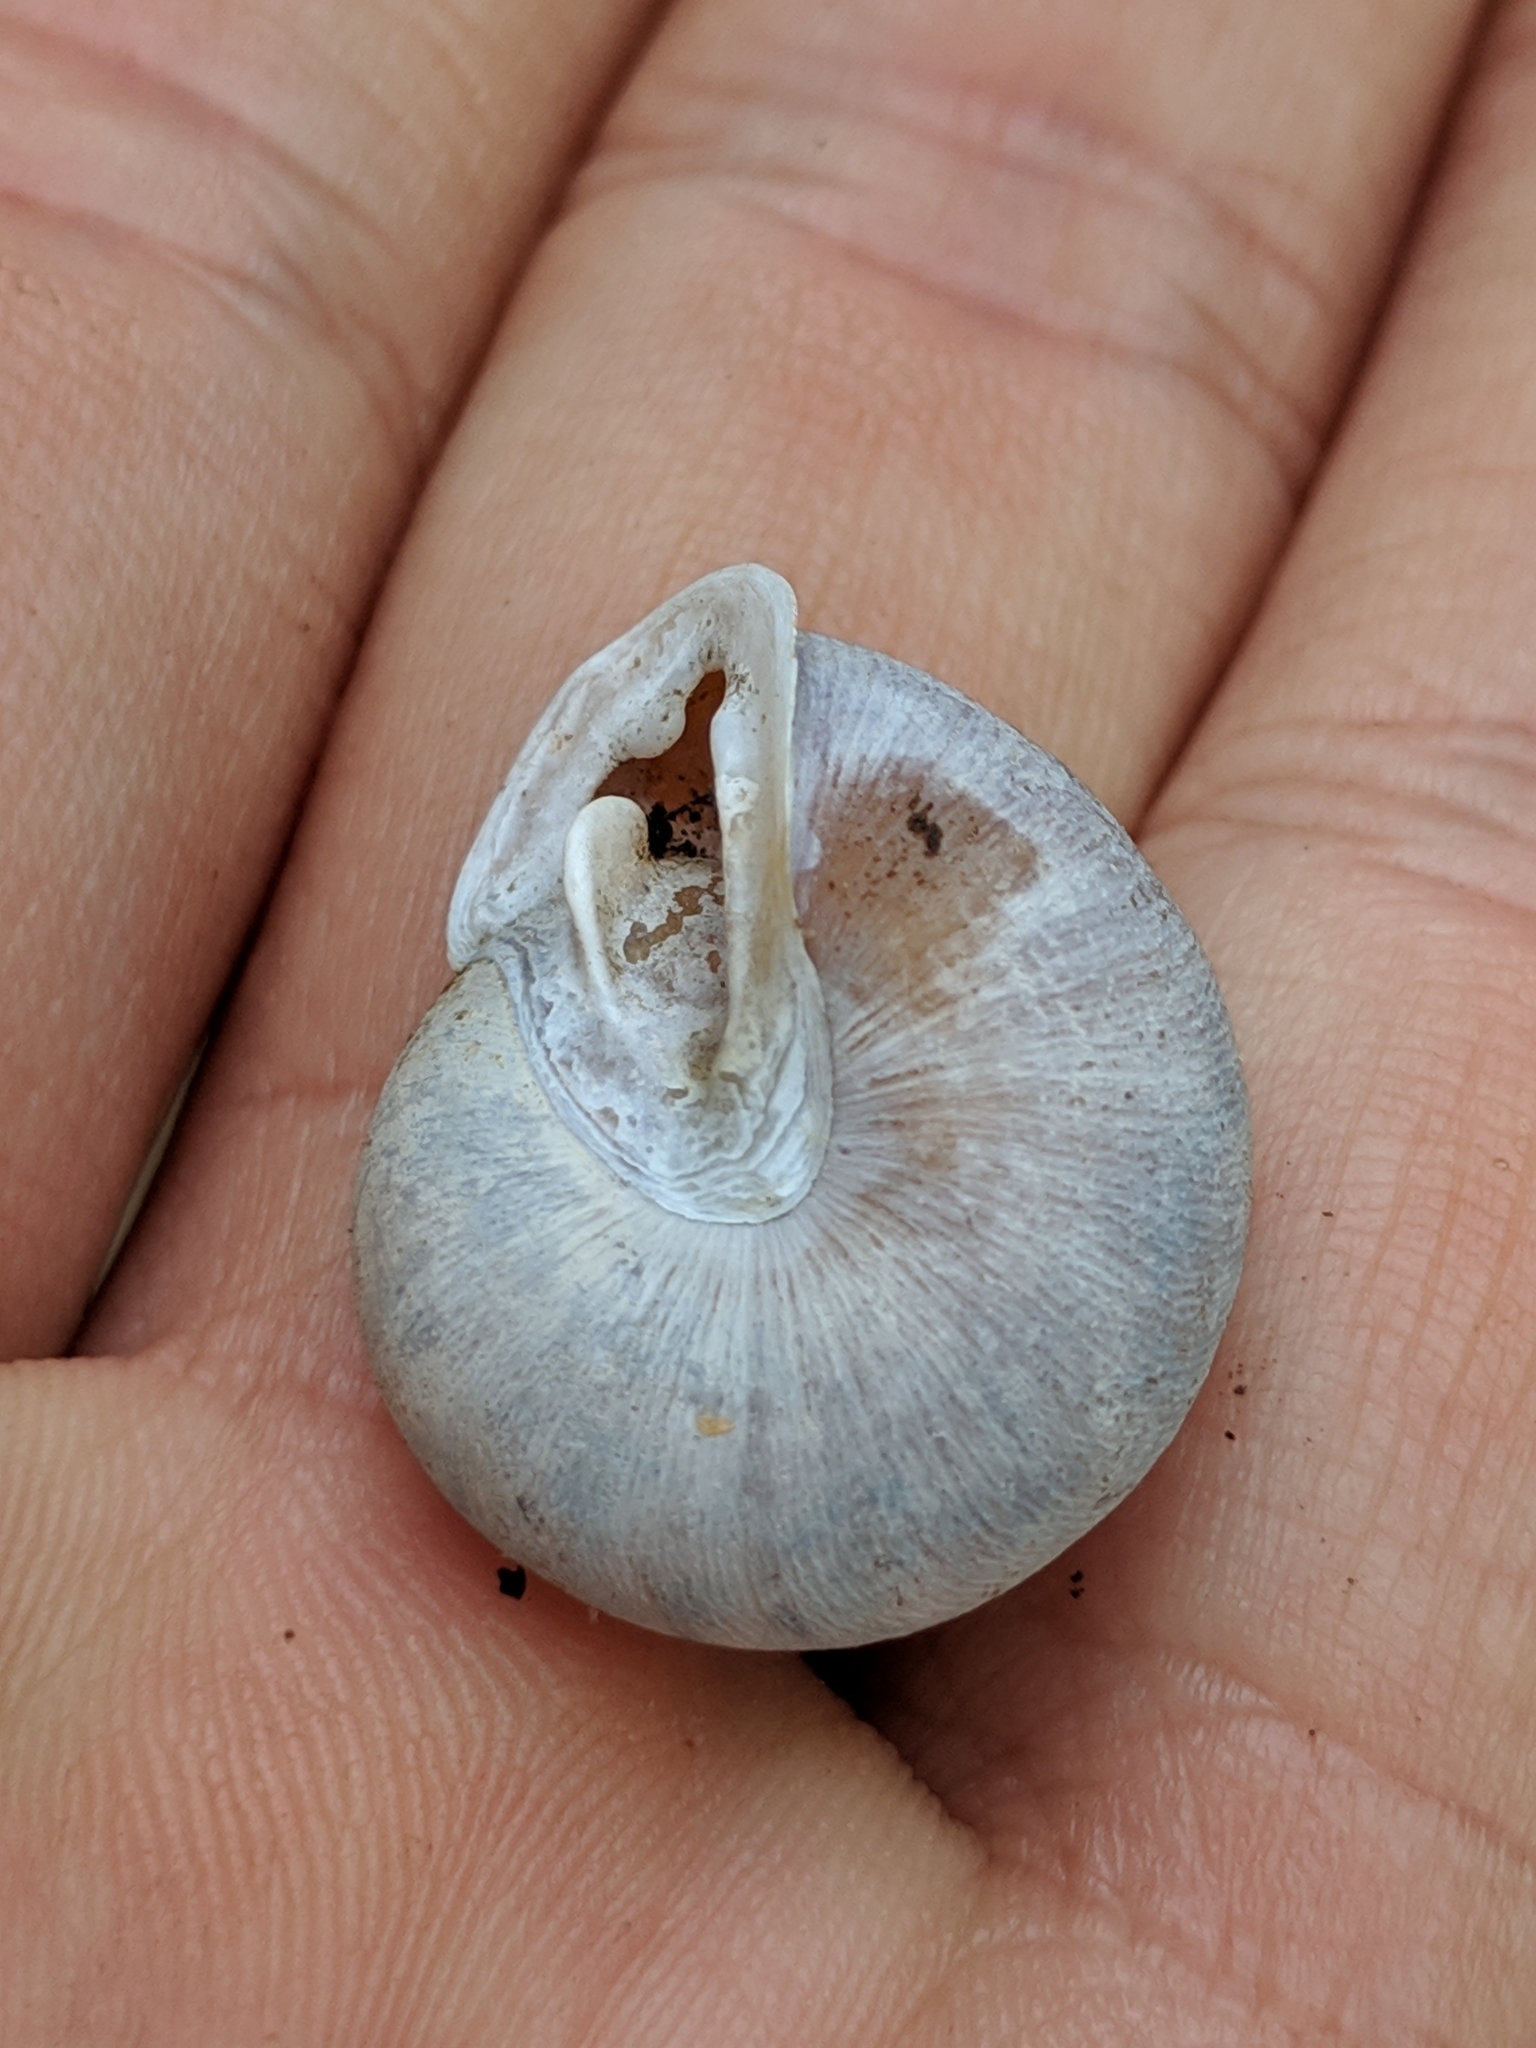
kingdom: Animalia
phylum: Mollusca
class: Gastropoda
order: Stylommatophora
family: Polygyridae
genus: Xolotrema
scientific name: Xolotrema denotatum
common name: Velvet wedge
